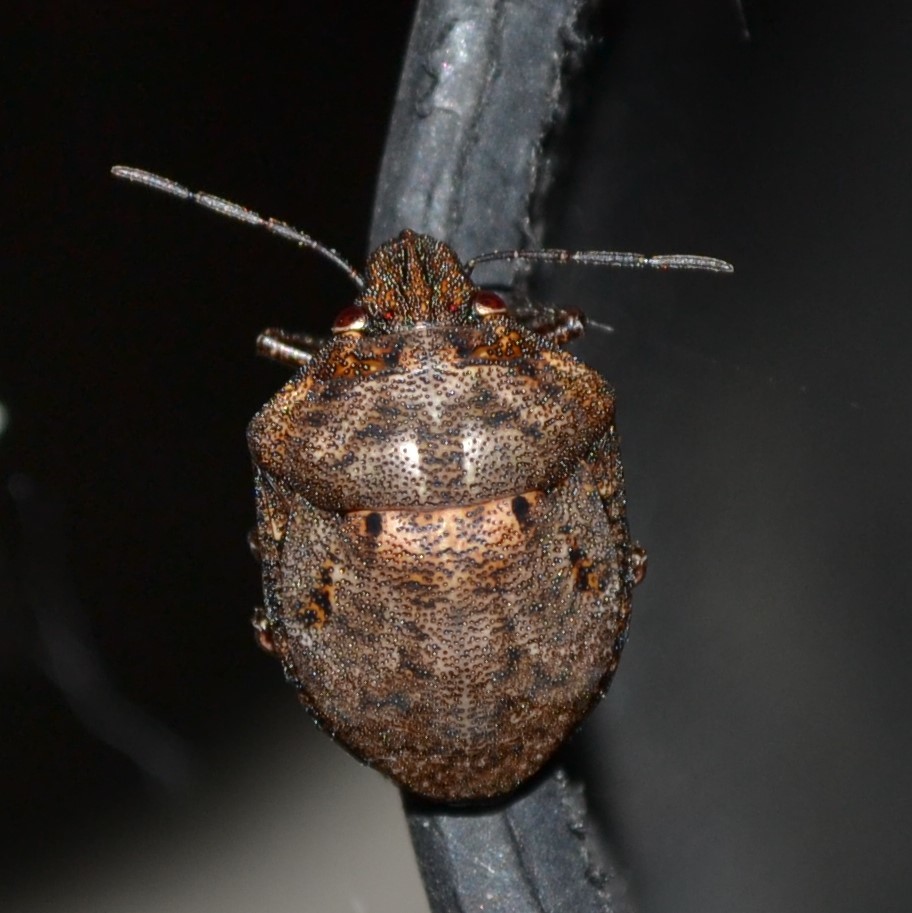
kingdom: Animalia
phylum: Arthropoda
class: Insecta
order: Hemiptera
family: Scutelleridae
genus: Tetyra
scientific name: Tetyra bipunctata
